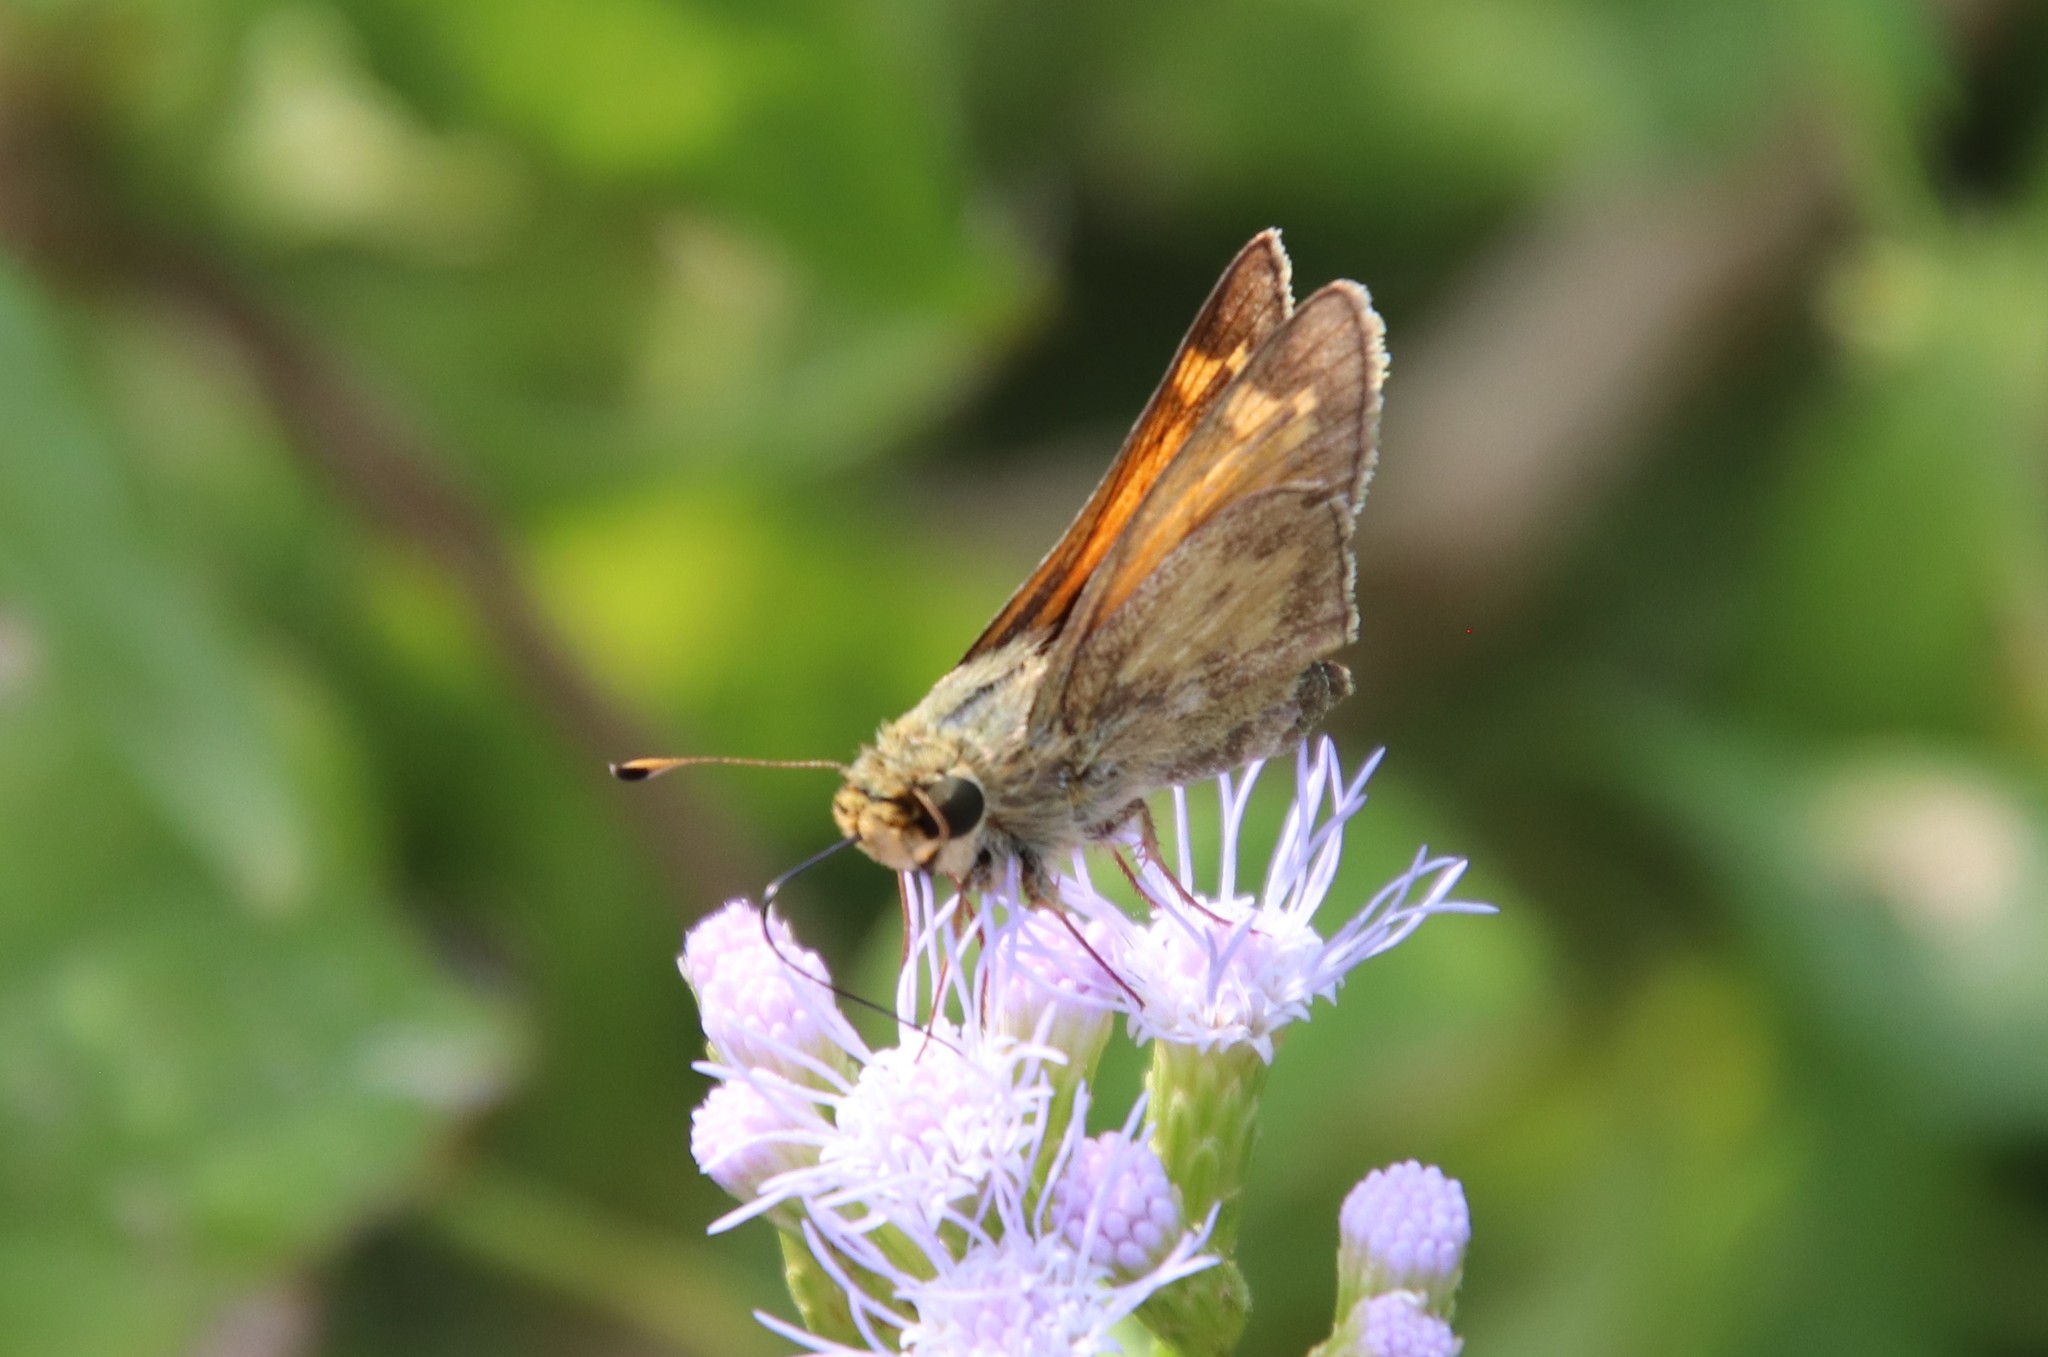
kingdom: Animalia
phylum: Arthropoda
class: Insecta
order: Lepidoptera
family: Hesperiidae
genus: Atalopedes
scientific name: Atalopedes
